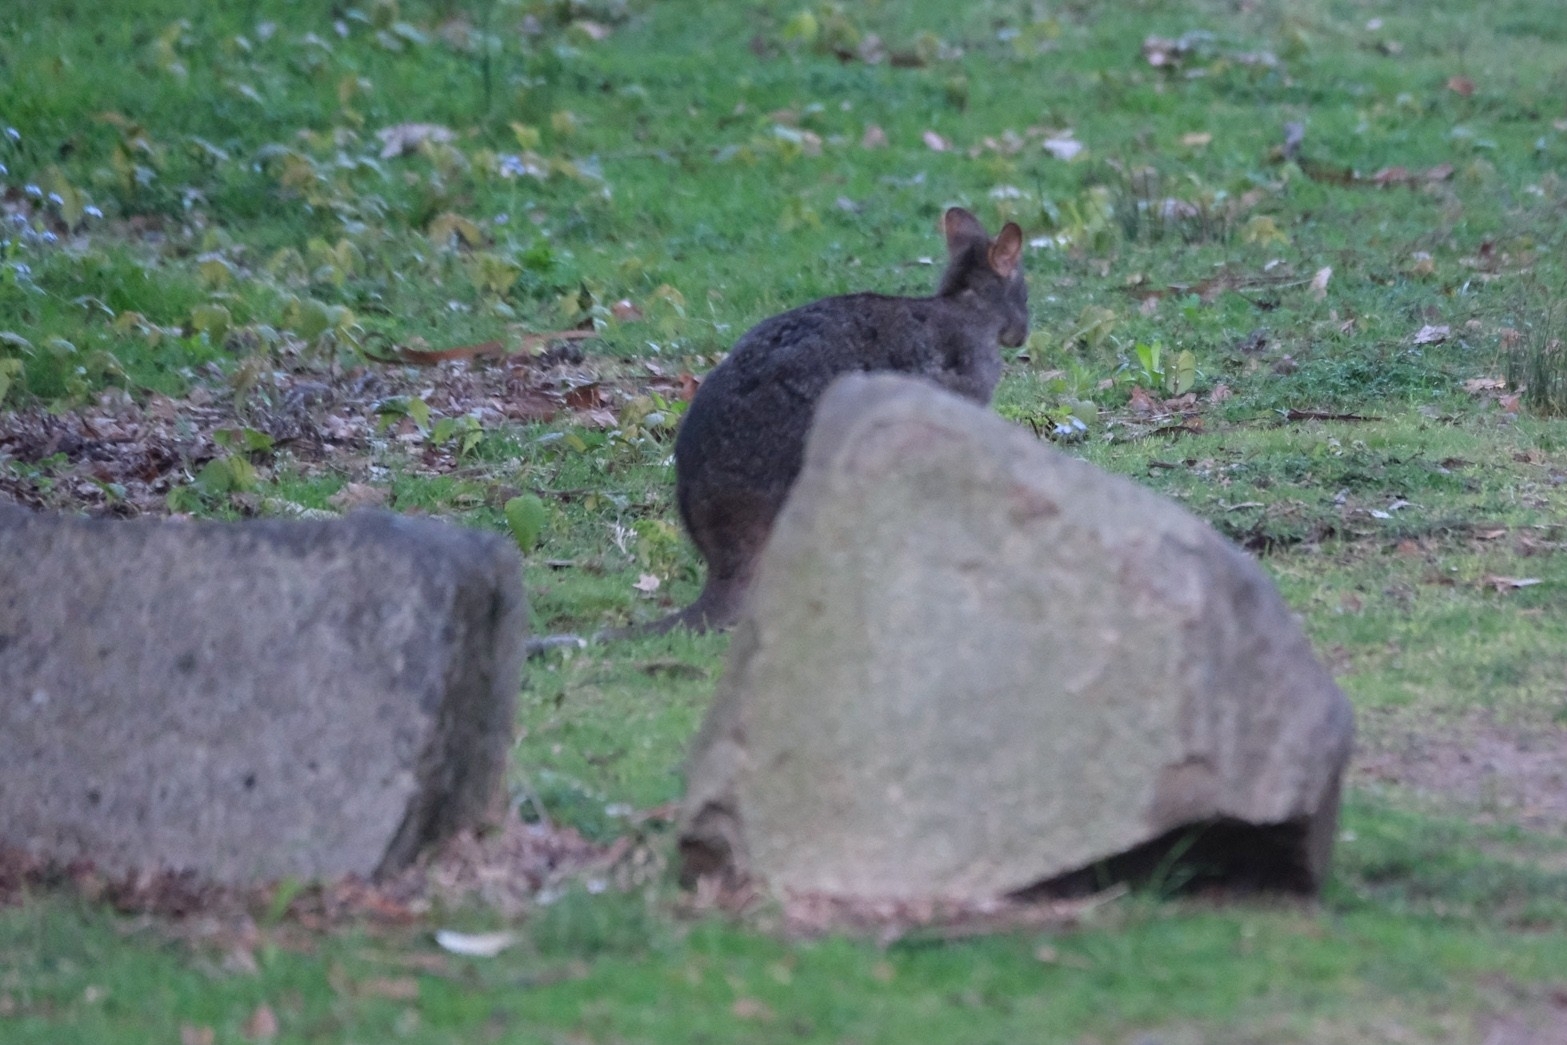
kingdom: Animalia
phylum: Chordata
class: Mammalia
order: Diprotodontia
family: Macropodidae
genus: Thylogale
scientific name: Thylogale billardierii
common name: Tasmanian pademelon
